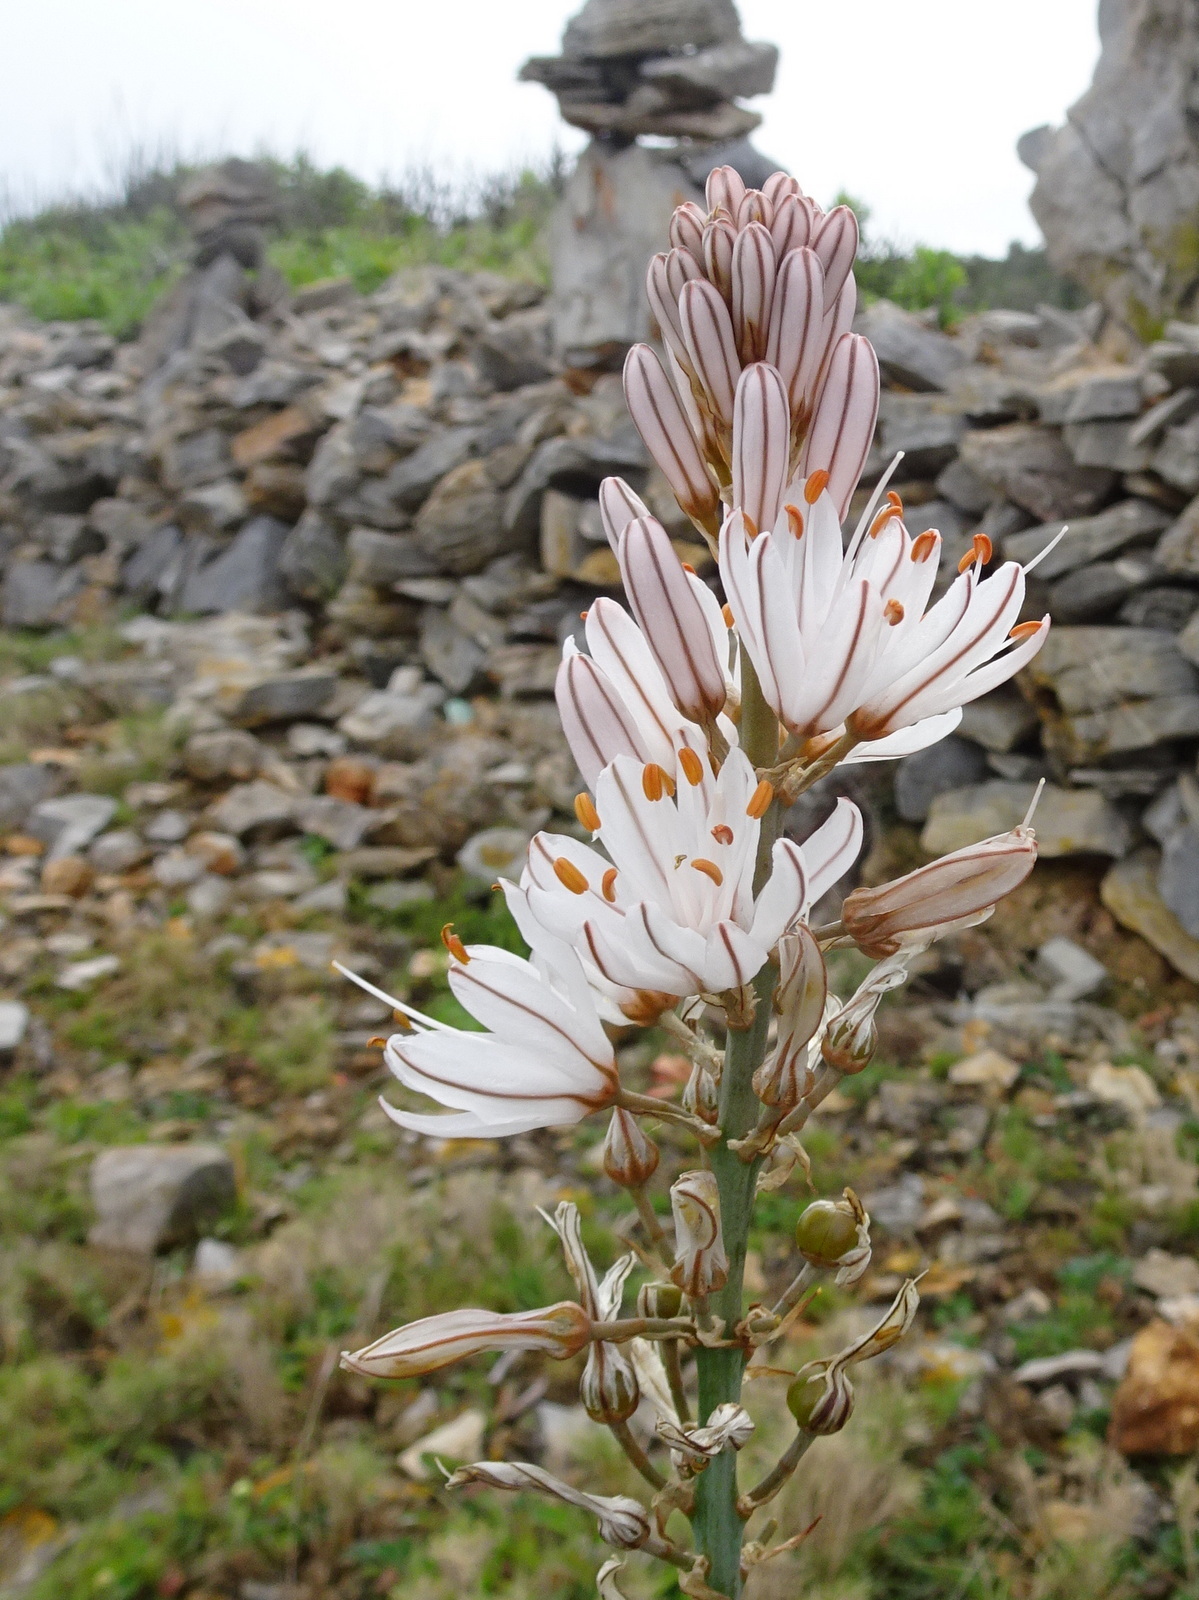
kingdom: Plantae
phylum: Tracheophyta
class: Liliopsida
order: Asparagales
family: Asphodelaceae
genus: Asphodelus
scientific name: Asphodelus cerasifer
